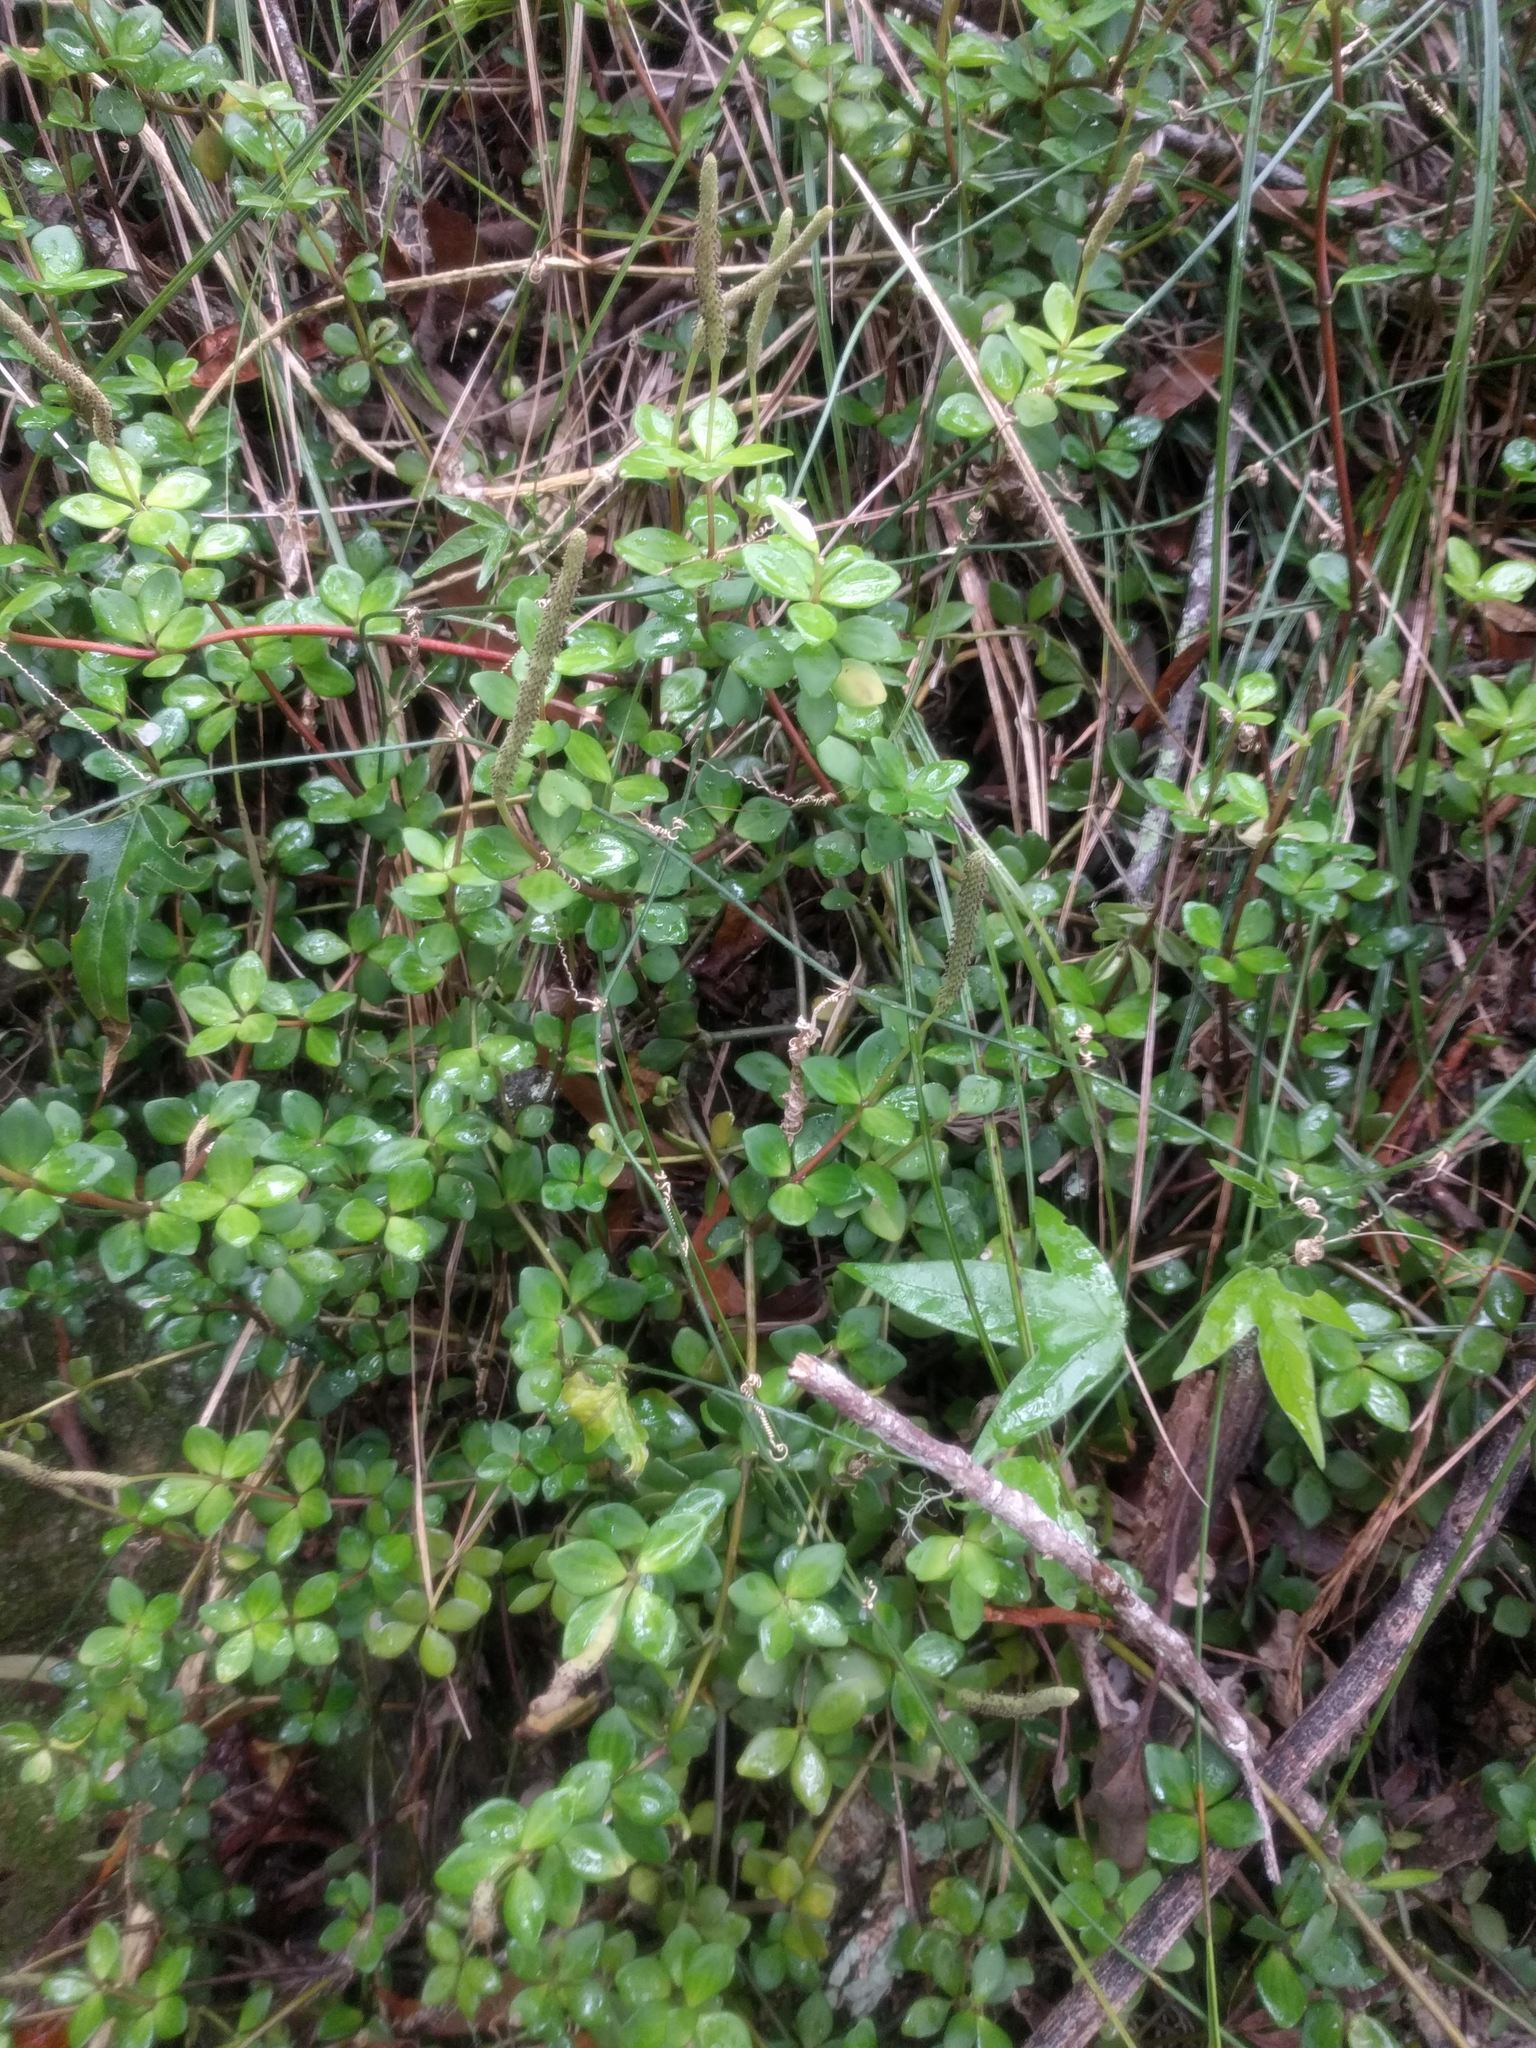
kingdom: Plantae
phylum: Tracheophyta
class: Magnoliopsida
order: Piperales
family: Piperaceae
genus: Peperomia
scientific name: Peperomia tetraphylla
